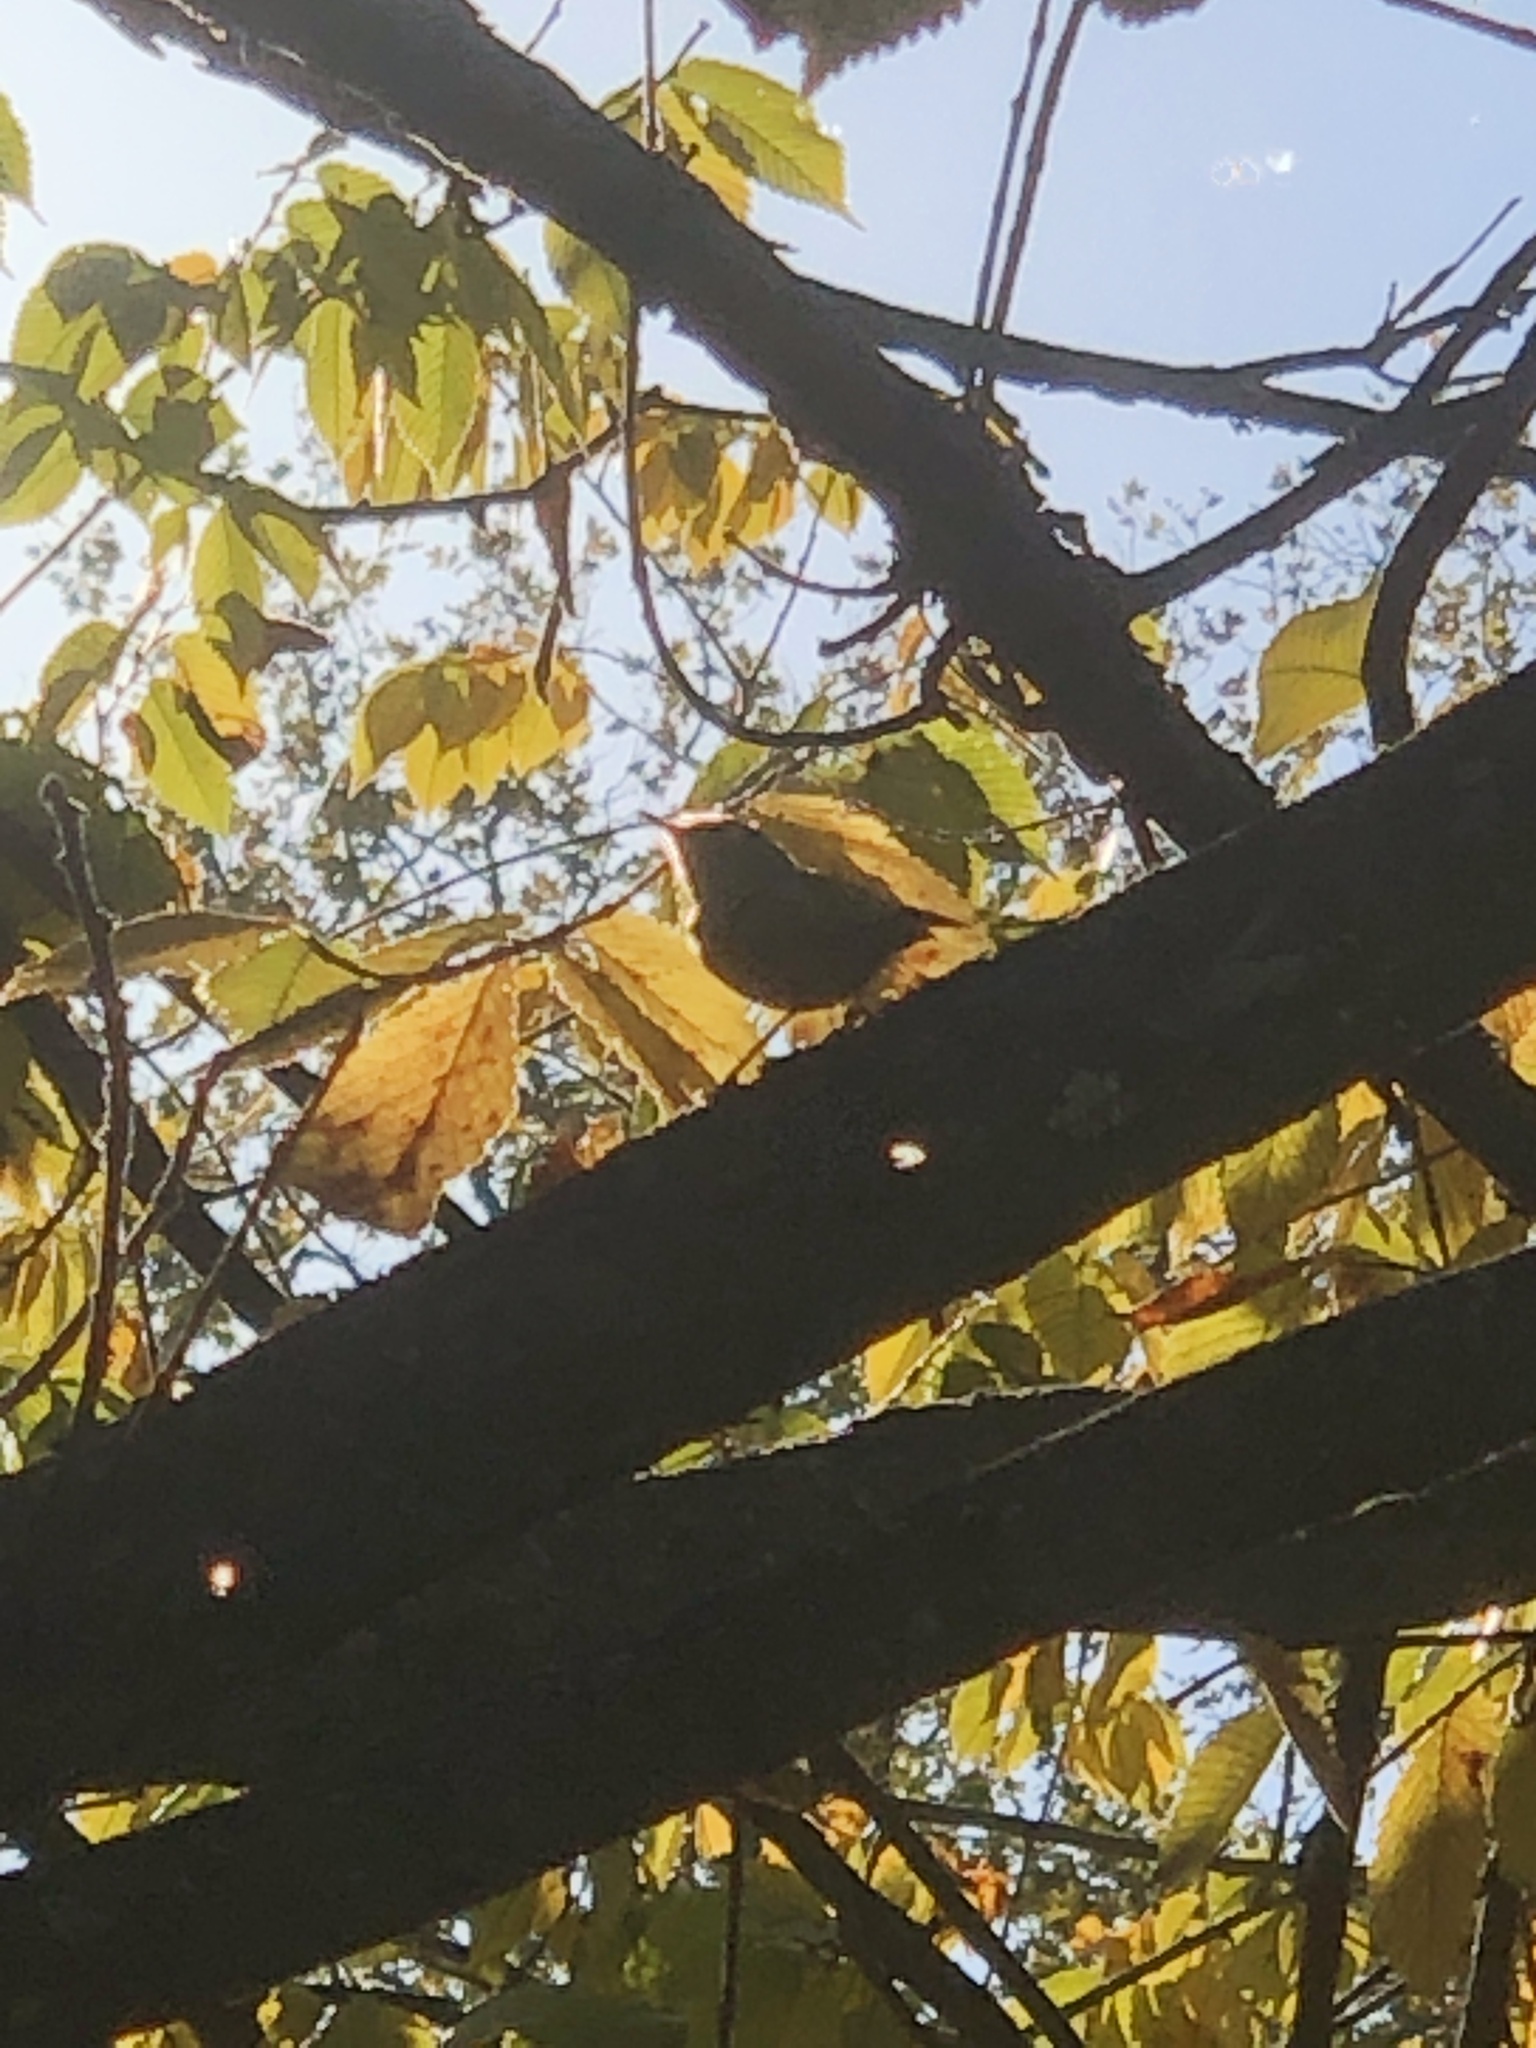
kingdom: Animalia
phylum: Chordata
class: Aves
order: Passeriformes
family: Regulidae
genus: Regulus
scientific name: Regulus calendula
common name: Ruby-crowned kinglet
